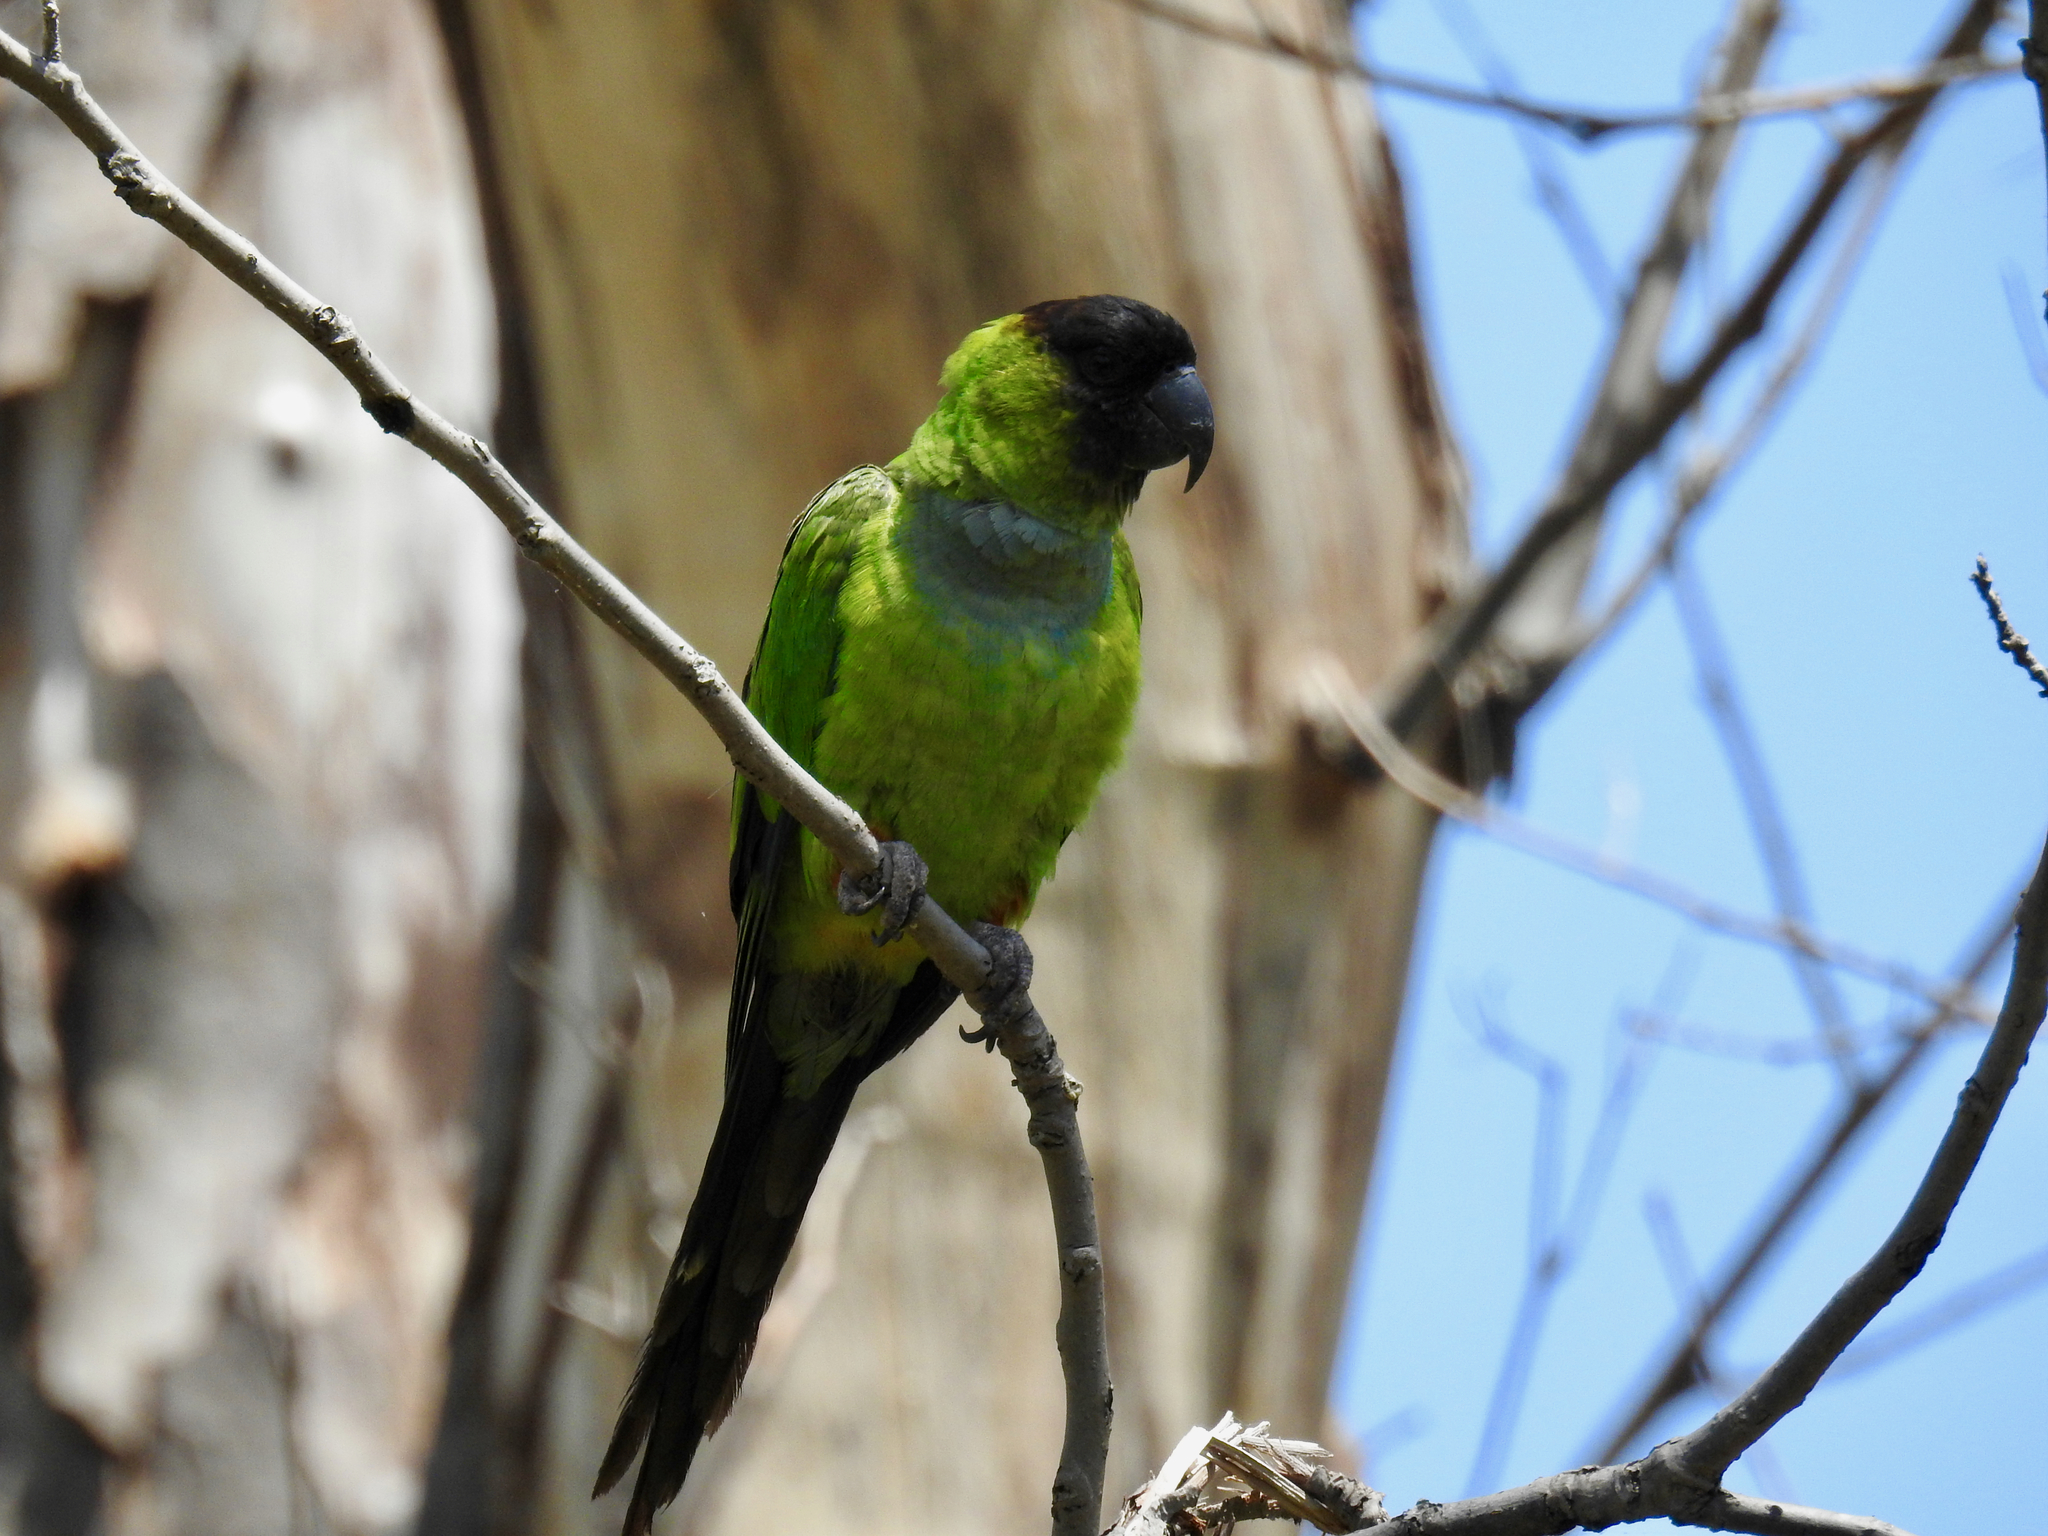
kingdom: Animalia
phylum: Chordata
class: Aves
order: Psittaciformes
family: Psittacidae
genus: Nandayus
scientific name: Nandayus nenday
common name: Nanday parakeet
